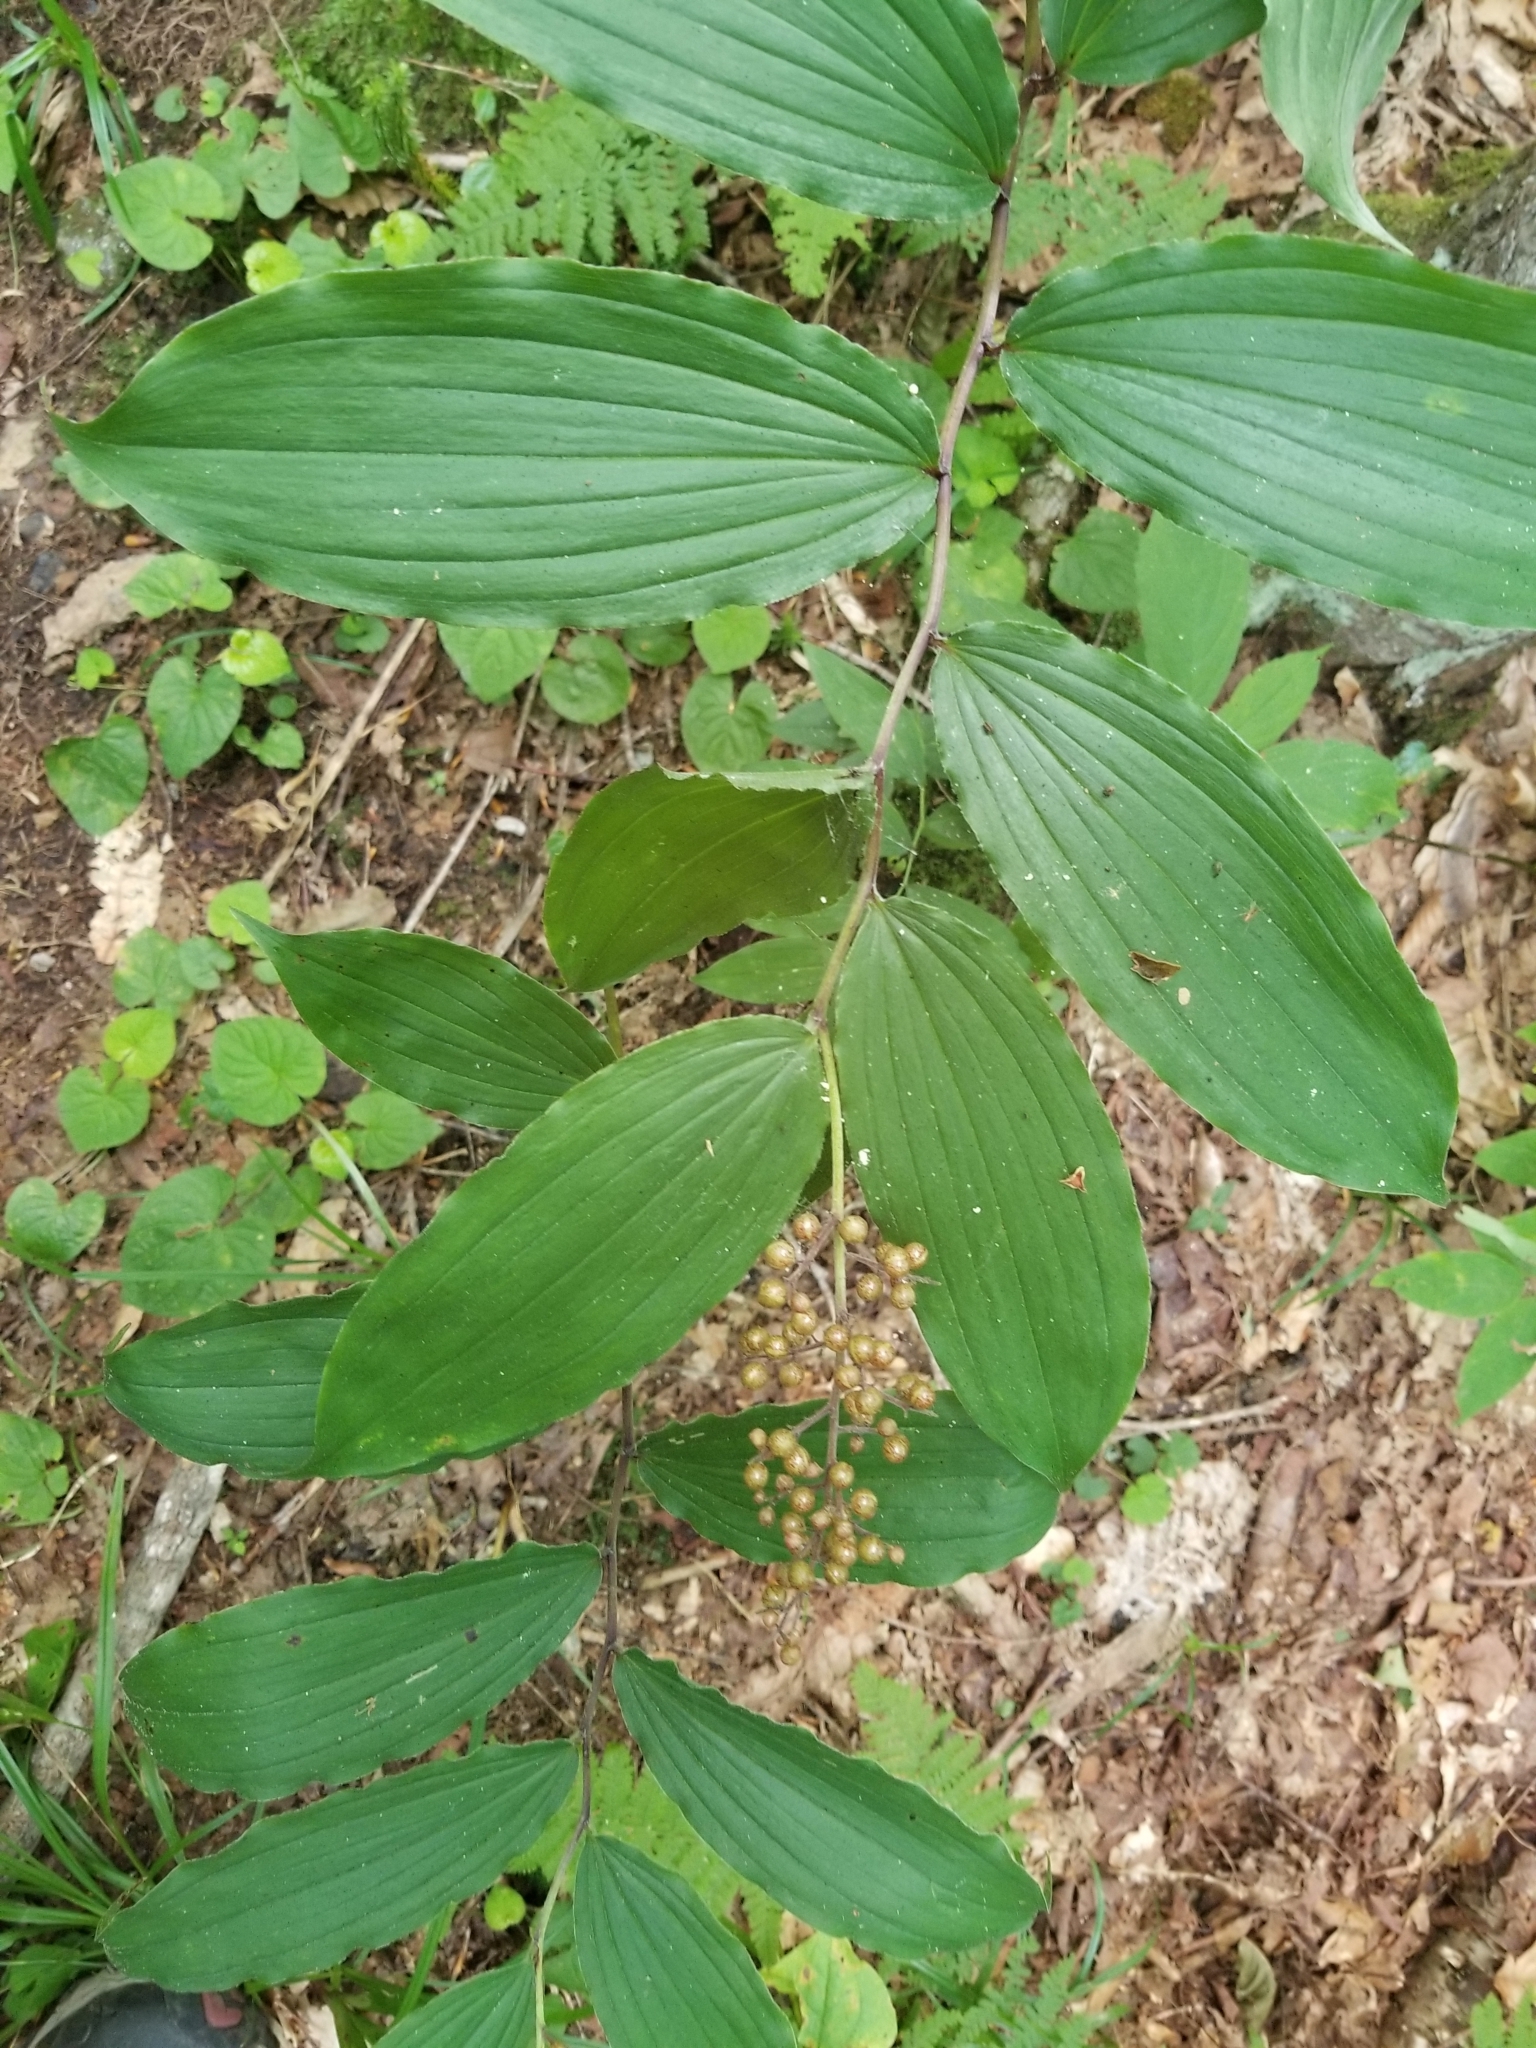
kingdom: Plantae
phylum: Tracheophyta
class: Liliopsida
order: Asparagales
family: Asparagaceae
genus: Maianthemum
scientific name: Maianthemum racemosum
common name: False spikenard
